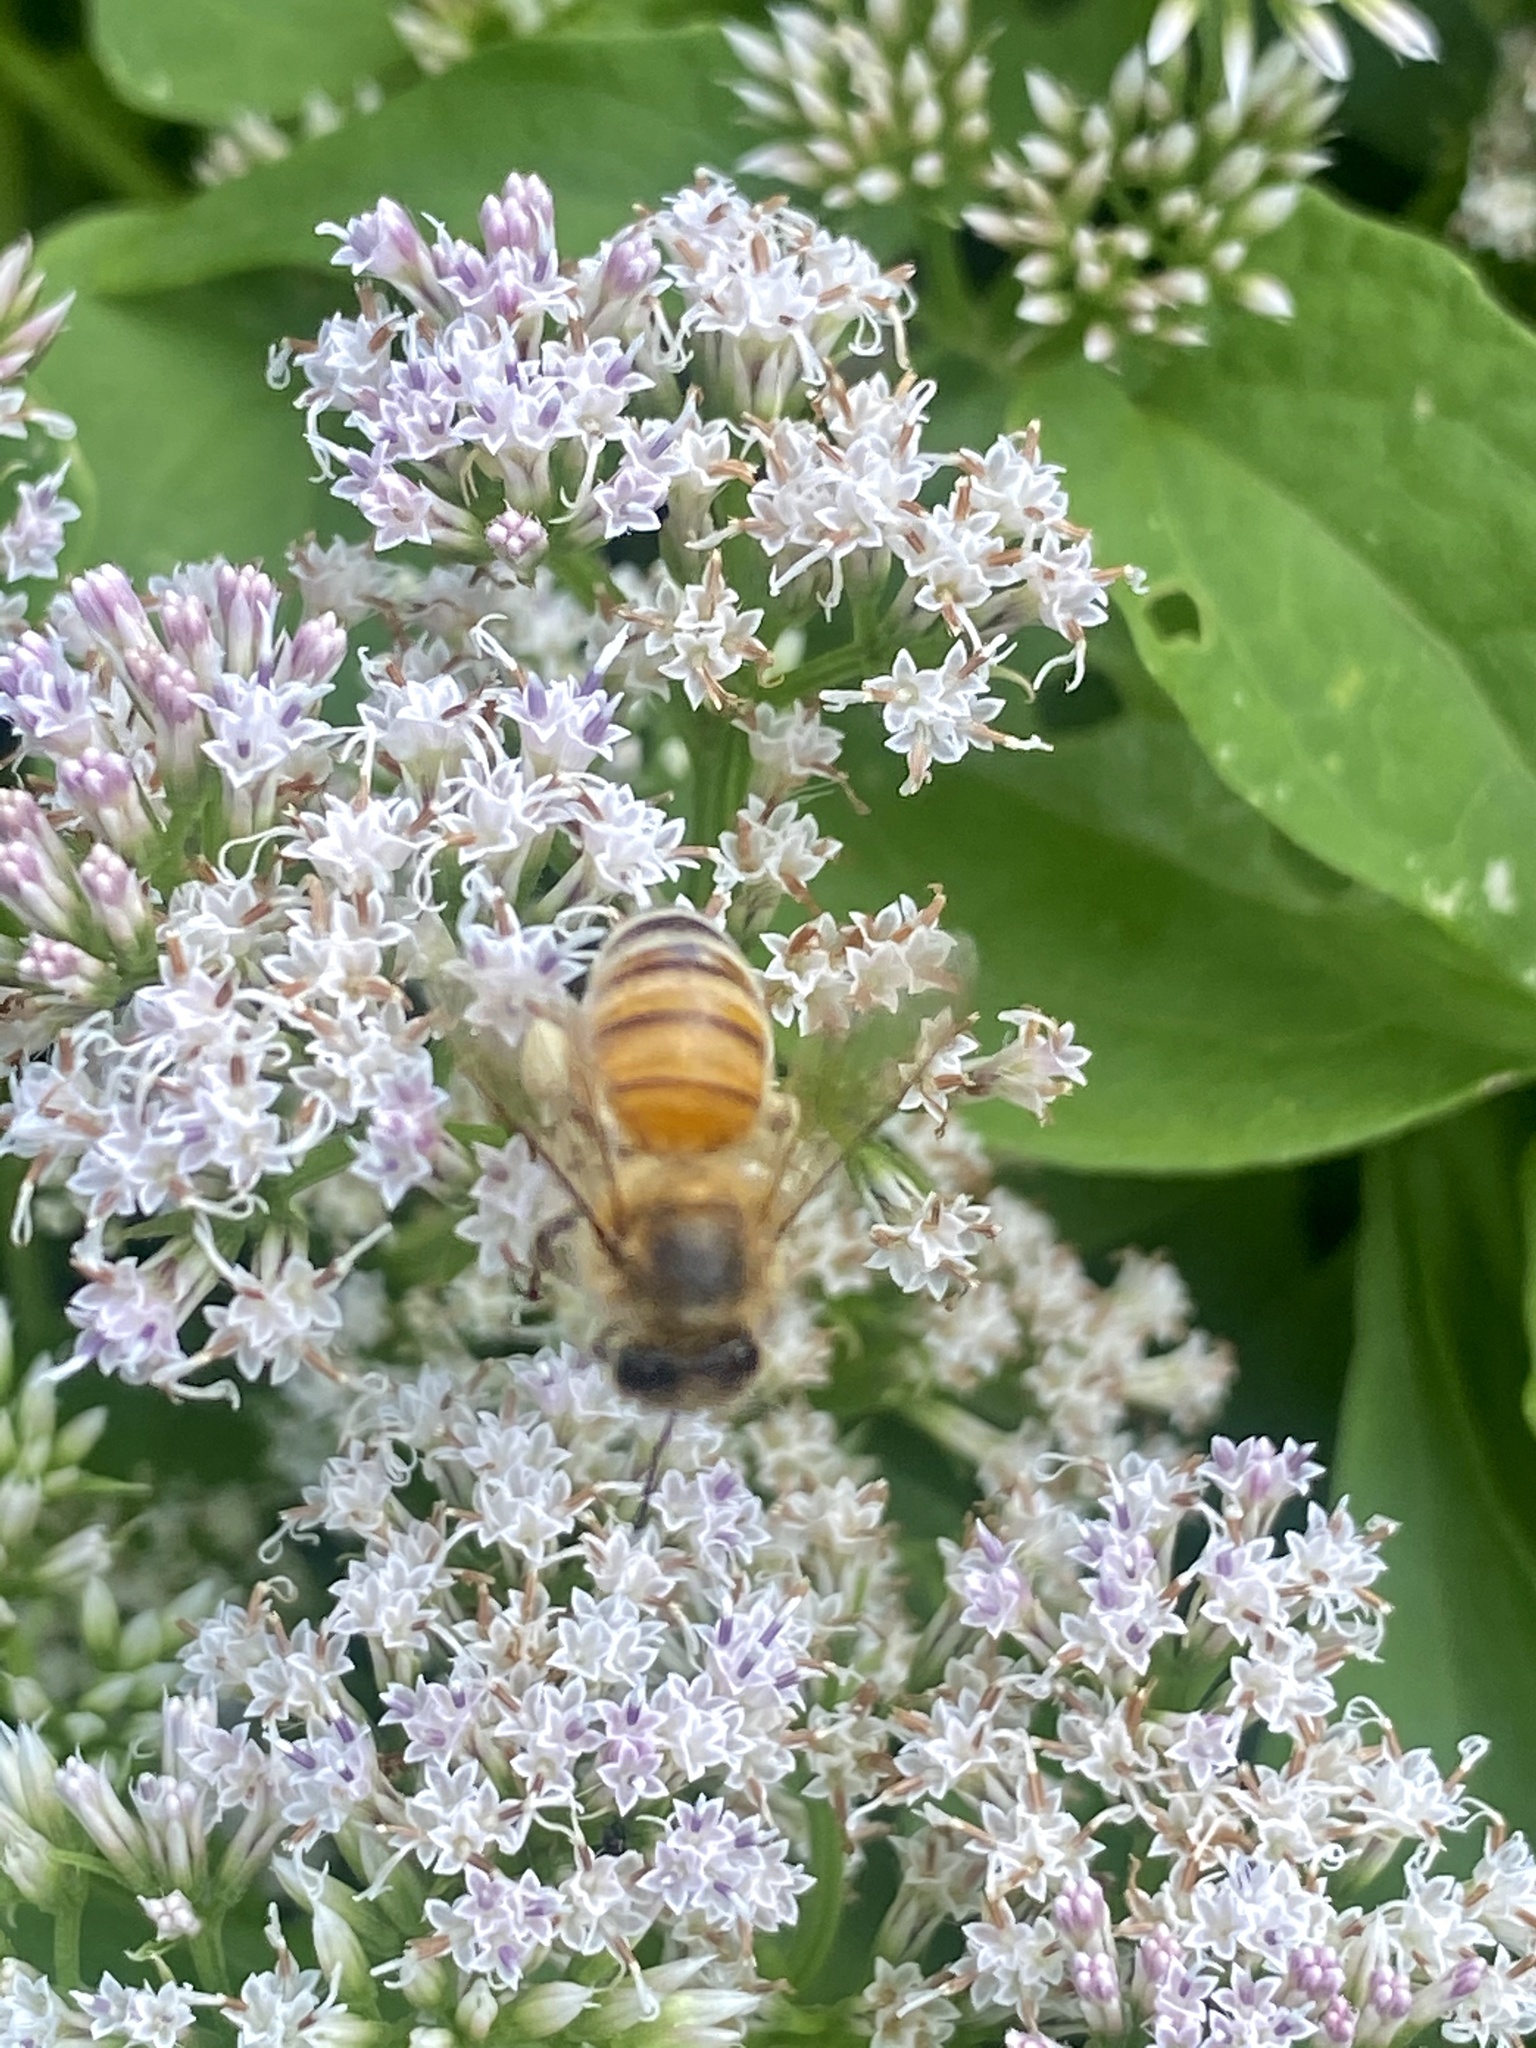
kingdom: Animalia
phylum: Arthropoda
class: Insecta
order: Hymenoptera
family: Apidae
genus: Apis
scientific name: Apis mellifera
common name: Honey bee
